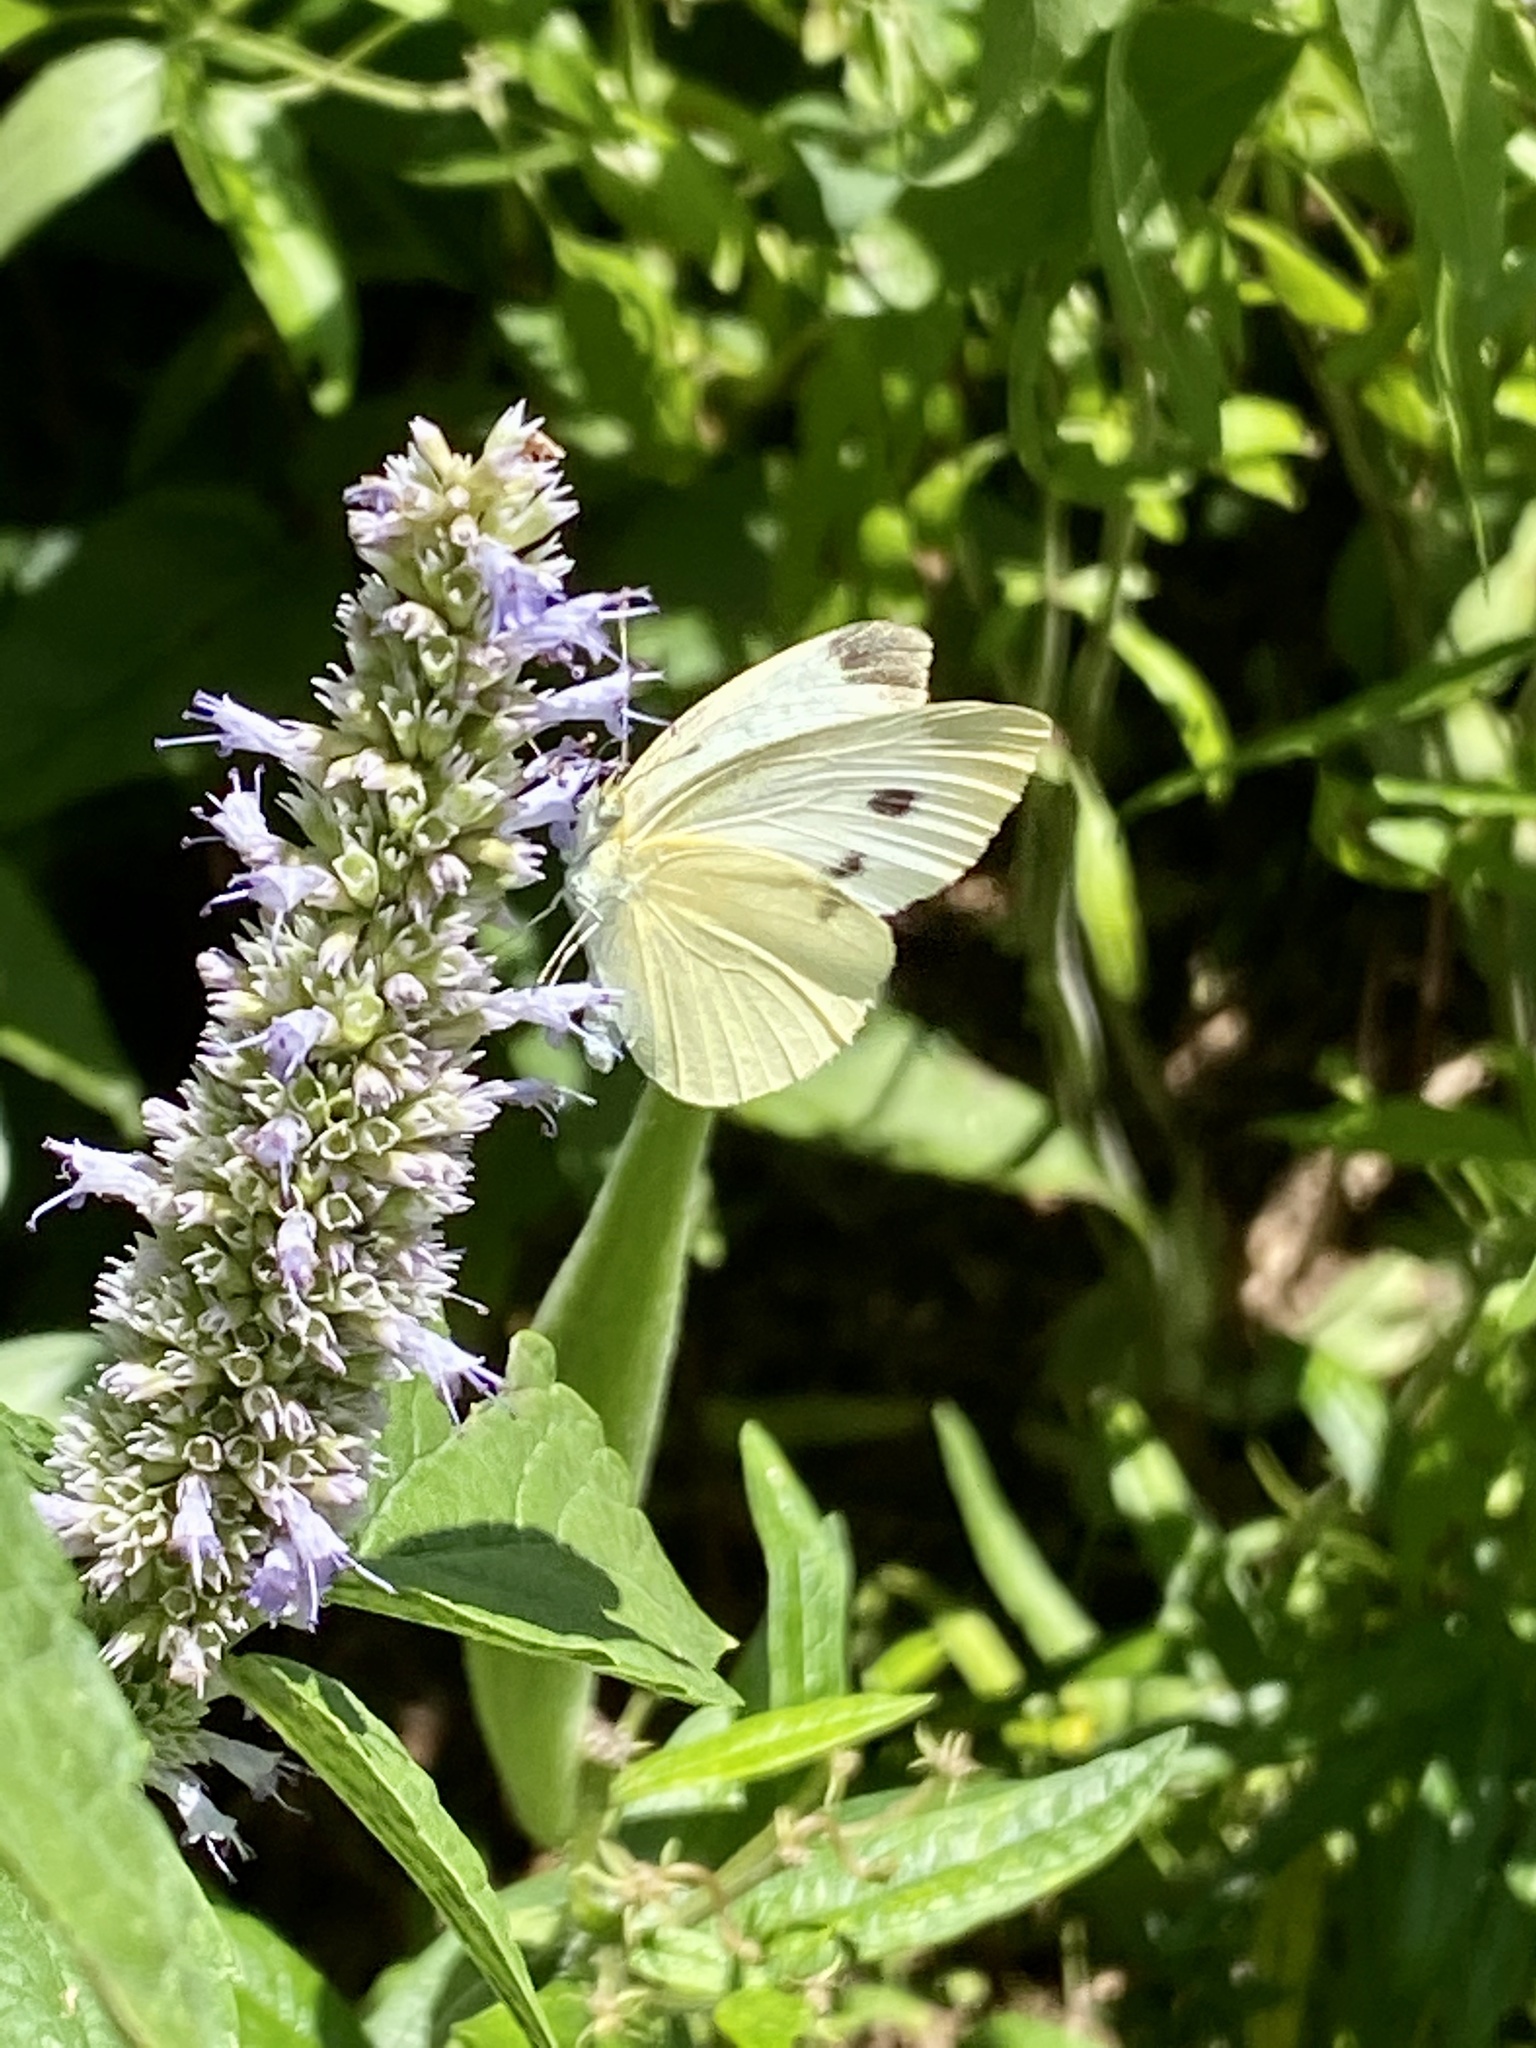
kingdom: Animalia
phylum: Arthropoda
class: Insecta
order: Lepidoptera
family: Pieridae
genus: Pieris
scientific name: Pieris rapae
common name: Small white
